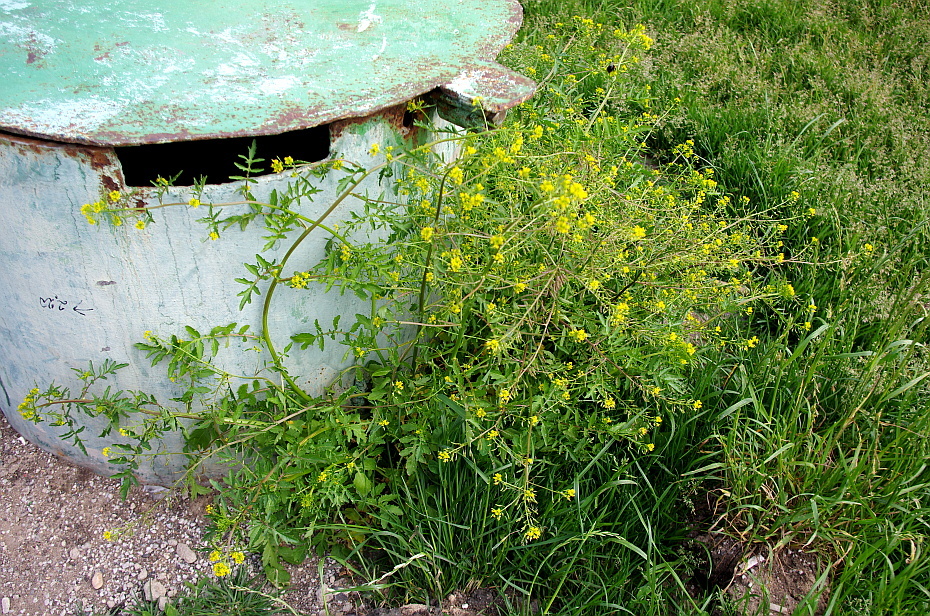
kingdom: Plantae
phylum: Tracheophyta
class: Magnoliopsida
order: Brassicales
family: Brassicaceae
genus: Rorippa
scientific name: Rorippa palustris
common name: Marsh yellow-cress
